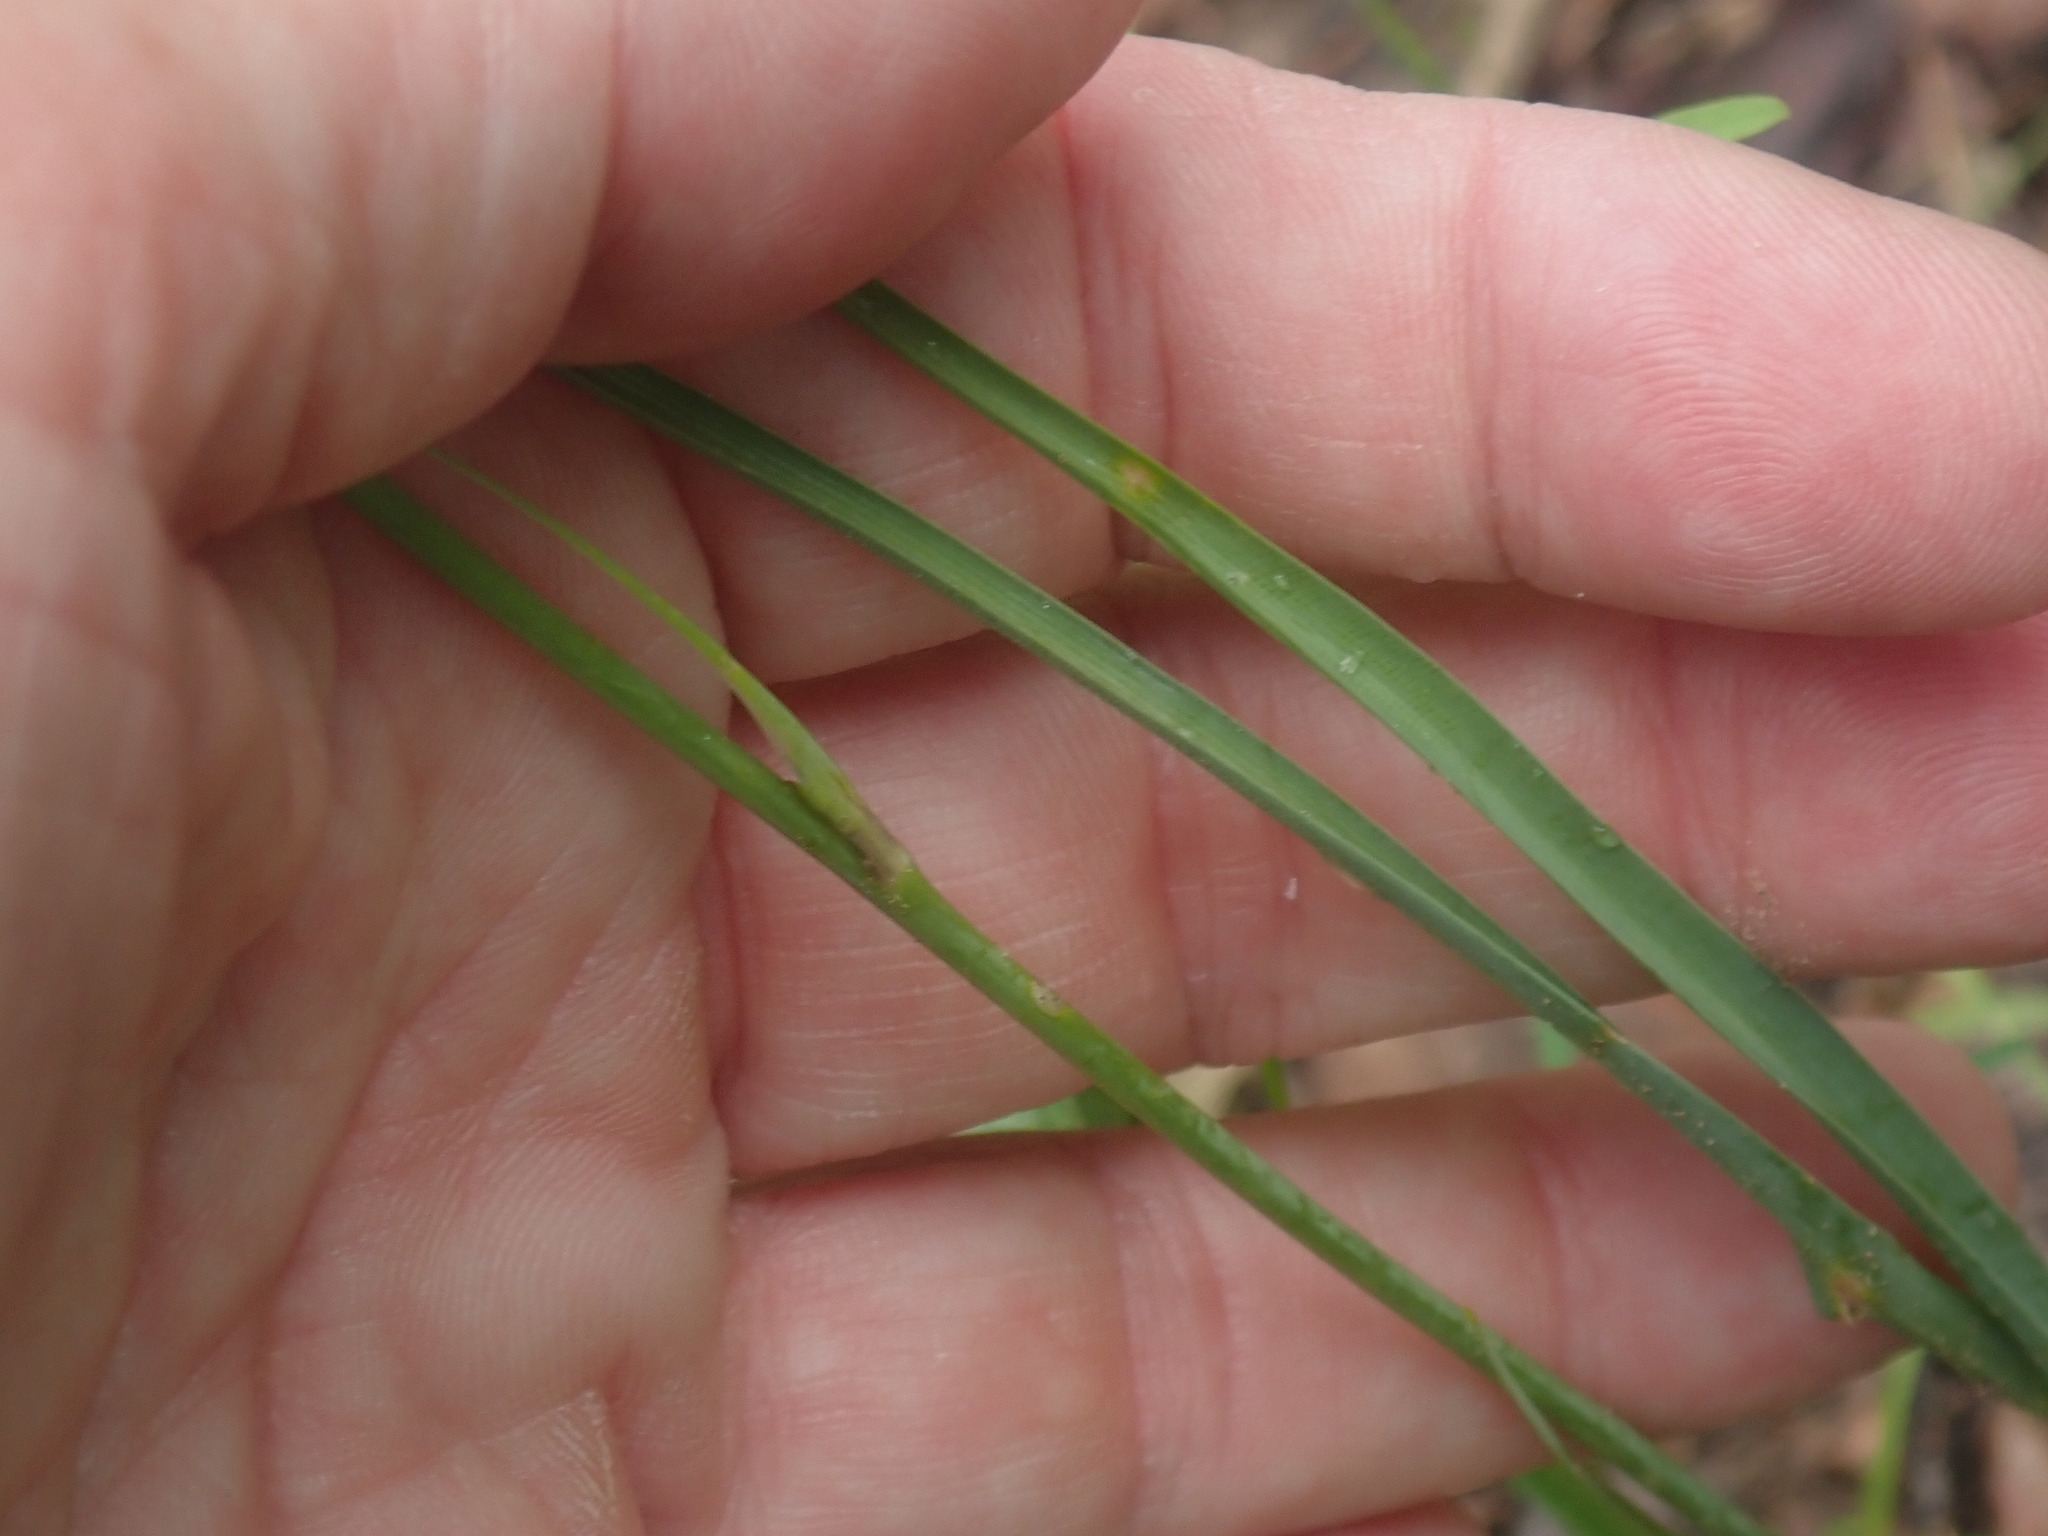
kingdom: Plantae
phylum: Tracheophyta
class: Liliopsida
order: Asparagales
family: Asparagaceae
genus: Echeandia
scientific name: Echeandia flavescens
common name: Amberlily
